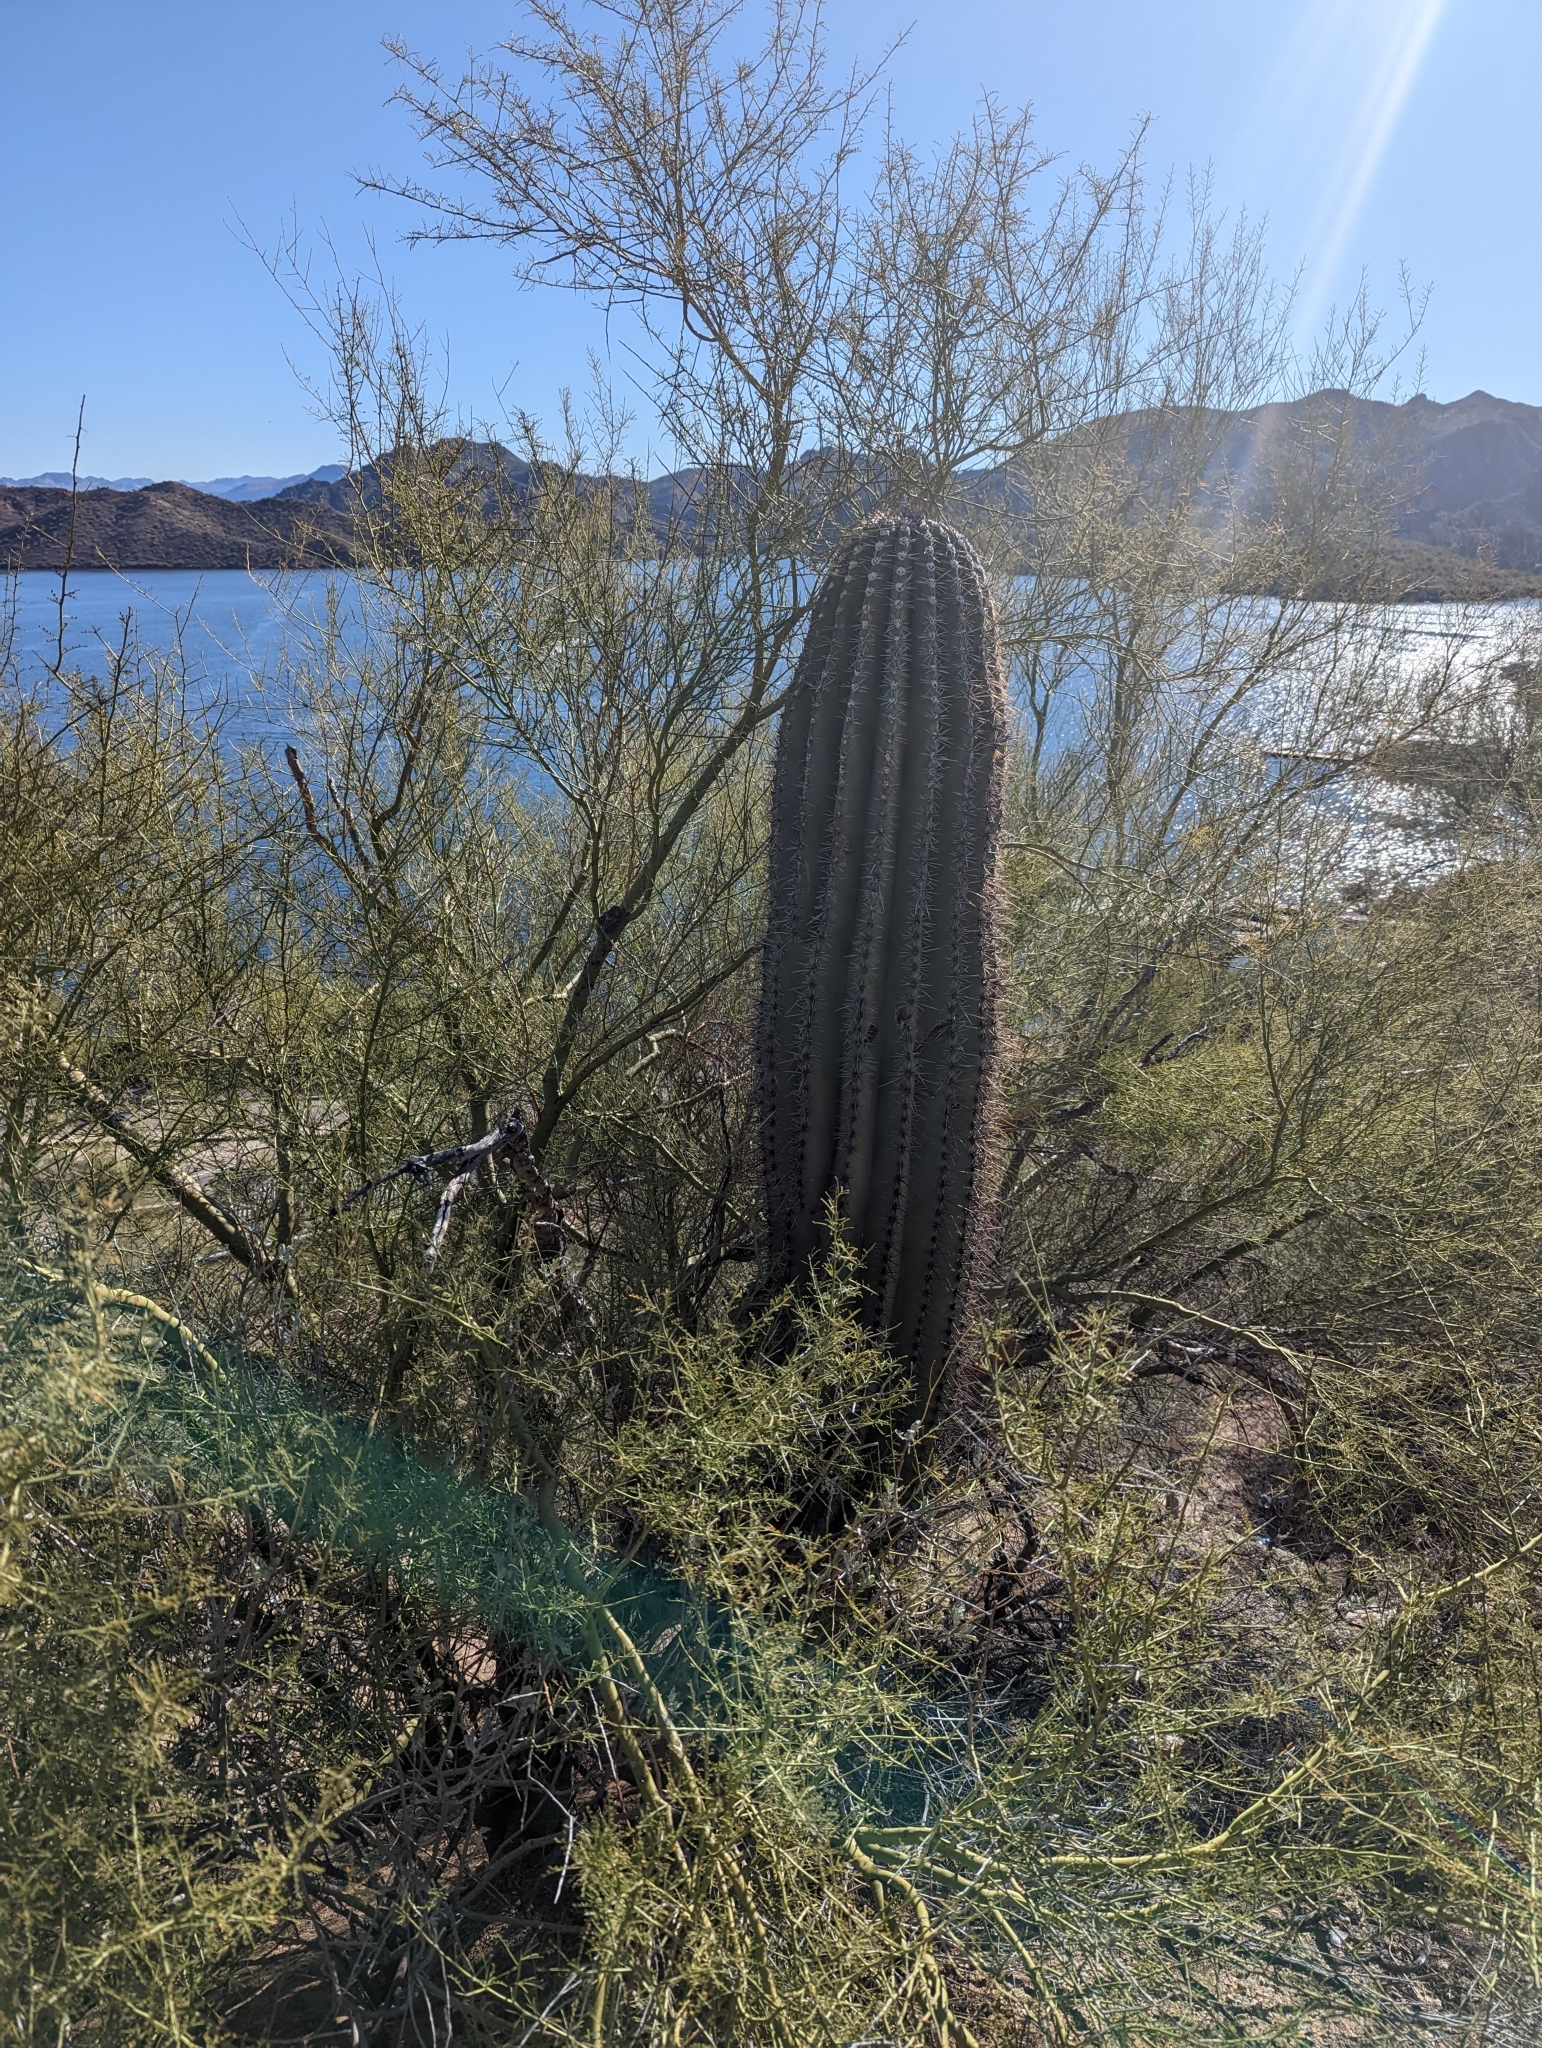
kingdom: Plantae
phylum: Tracheophyta
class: Magnoliopsida
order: Caryophyllales
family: Cactaceae
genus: Carnegiea
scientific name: Carnegiea gigantea
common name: Saguaro
